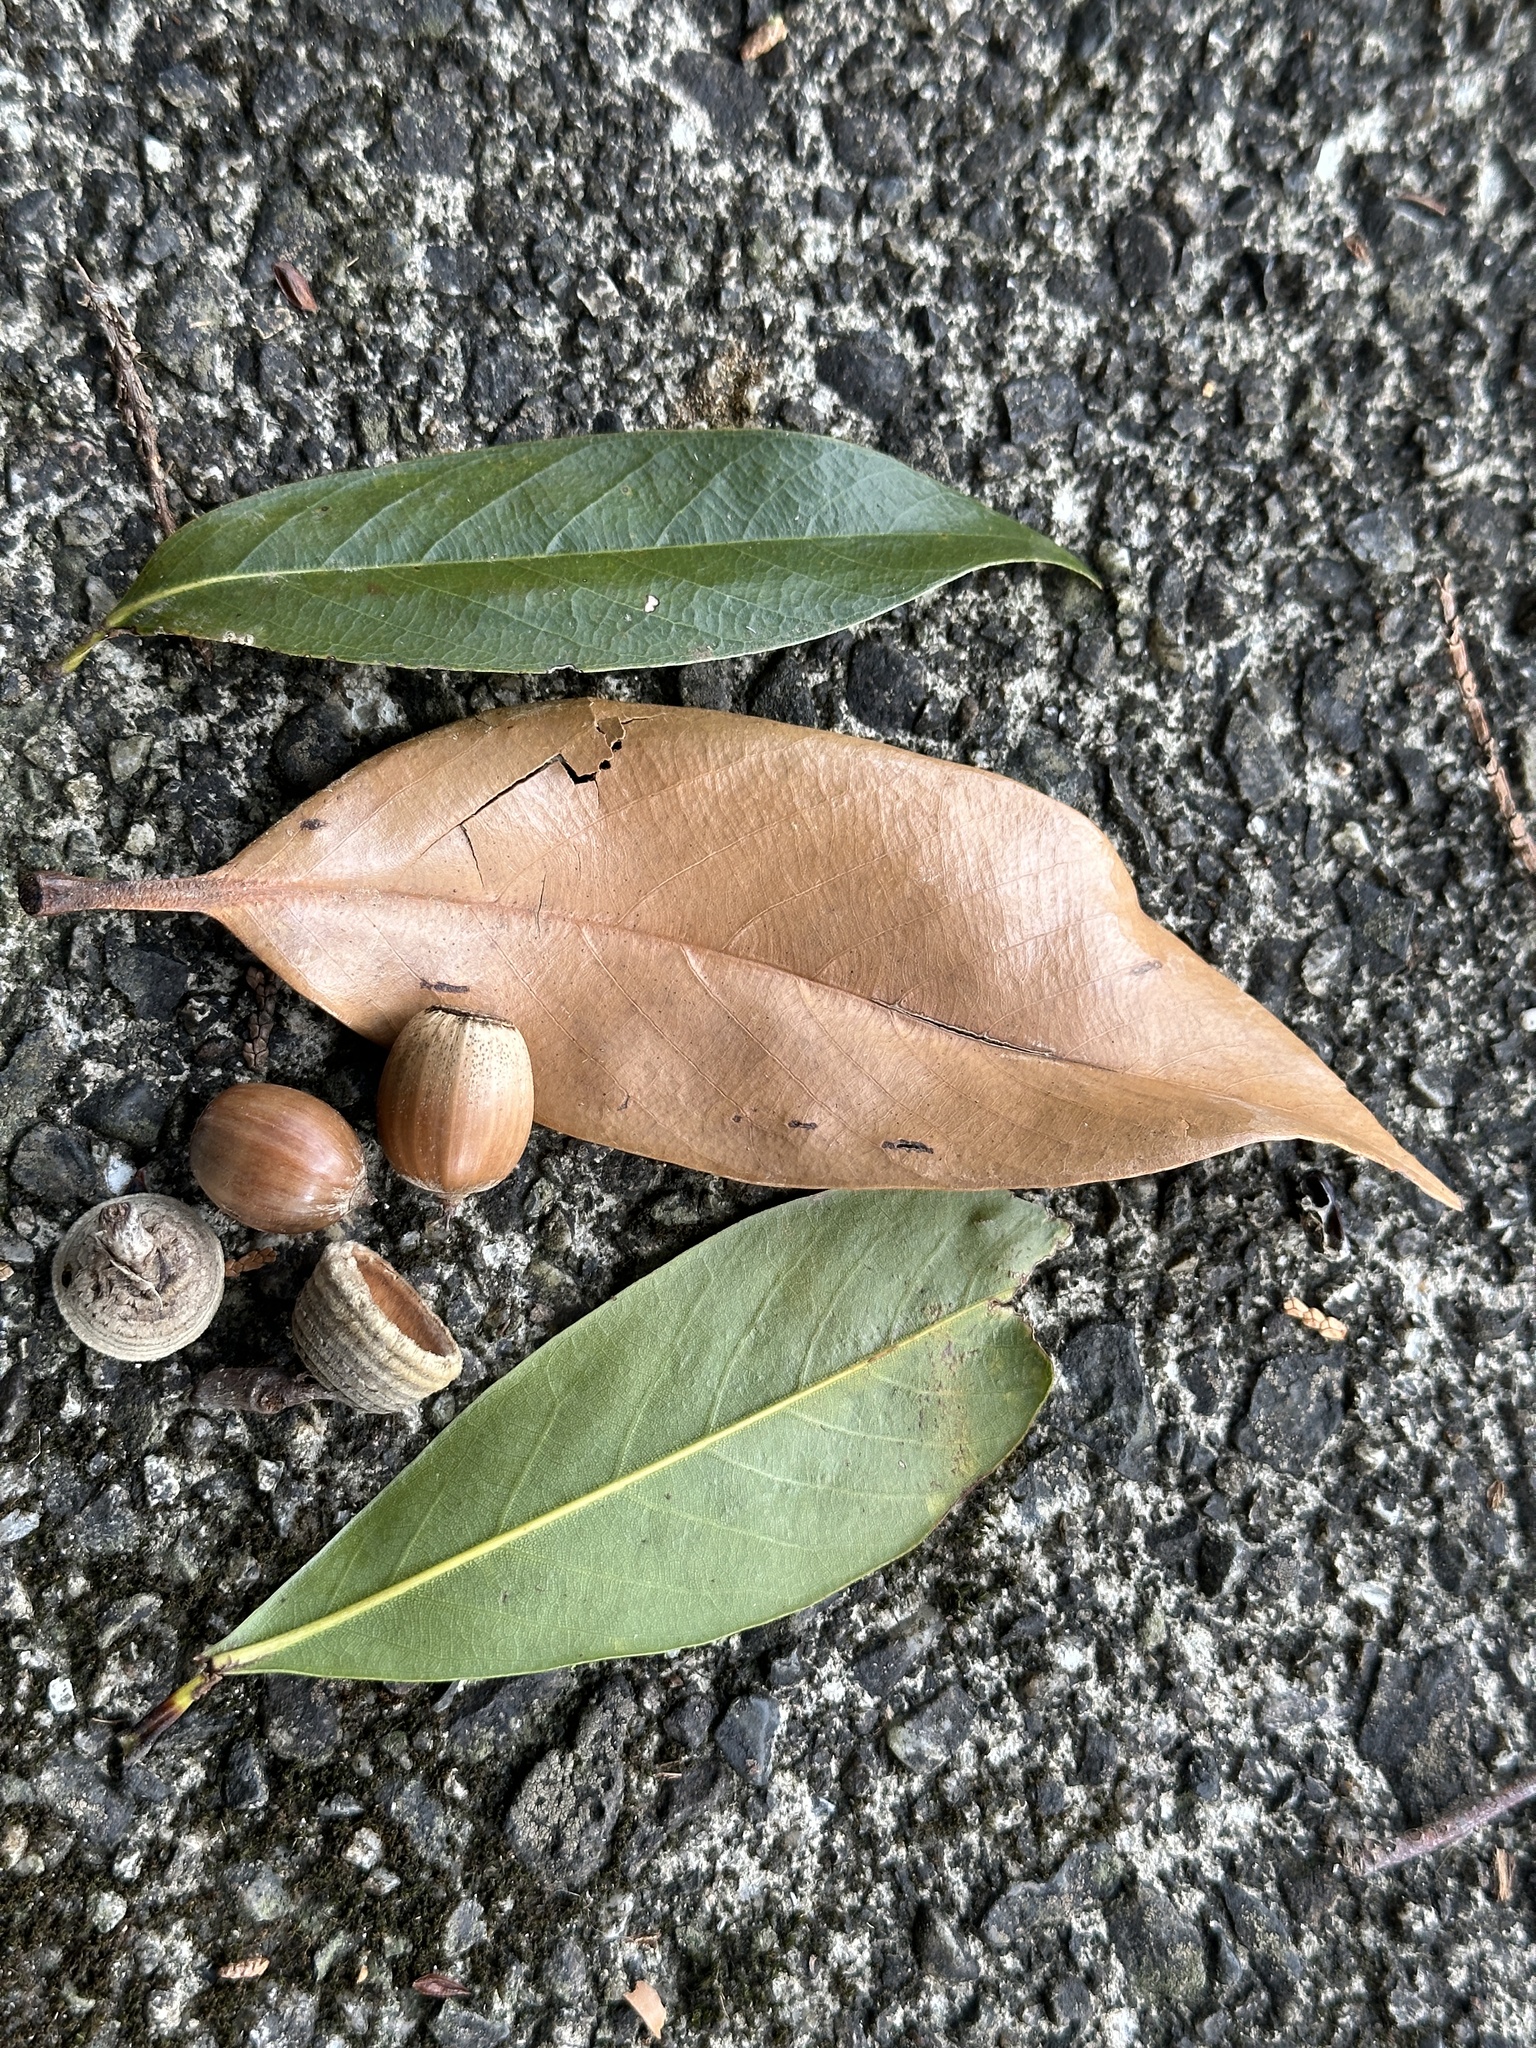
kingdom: Plantae
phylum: Tracheophyta
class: Magnoliopsida
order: Fagales
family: Fagaceae
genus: Quercus
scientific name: Quercus acuta
